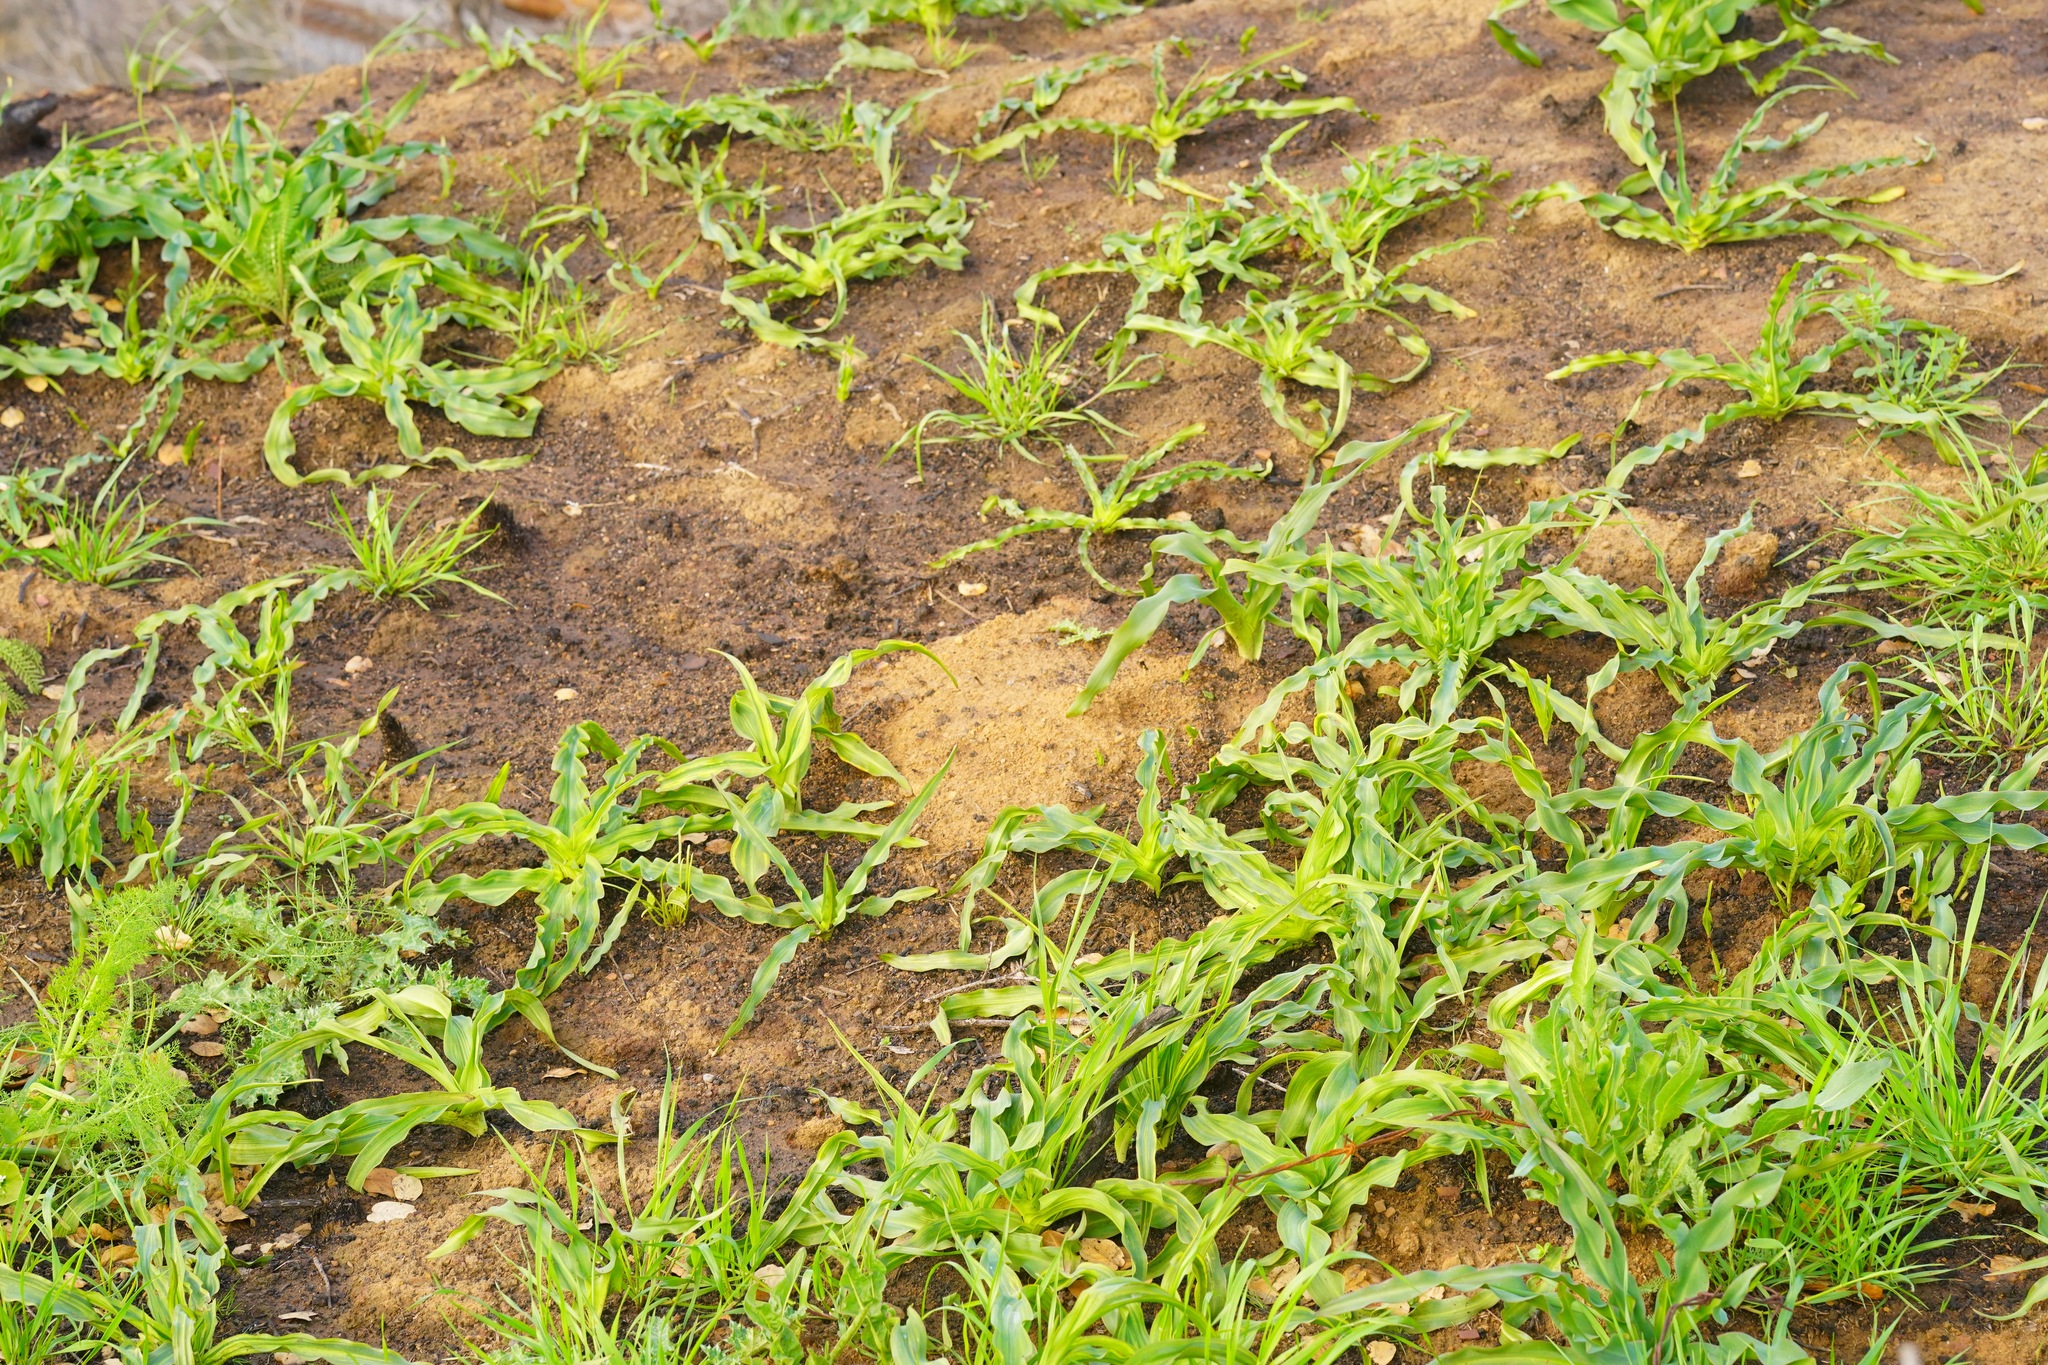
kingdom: Plantae
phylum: Tracheophyta
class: Liliopsida
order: Asparagales
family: Asparagaceae
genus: Chlorogalum
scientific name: Chlorogalum pomeridianum
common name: Amole
